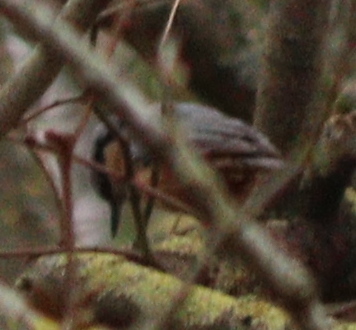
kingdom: Animalia
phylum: Chordata
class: Aves
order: Passeriformes
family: Sittidae
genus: Sitta
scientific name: Sitta europaea
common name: Eurasian nuthatch
